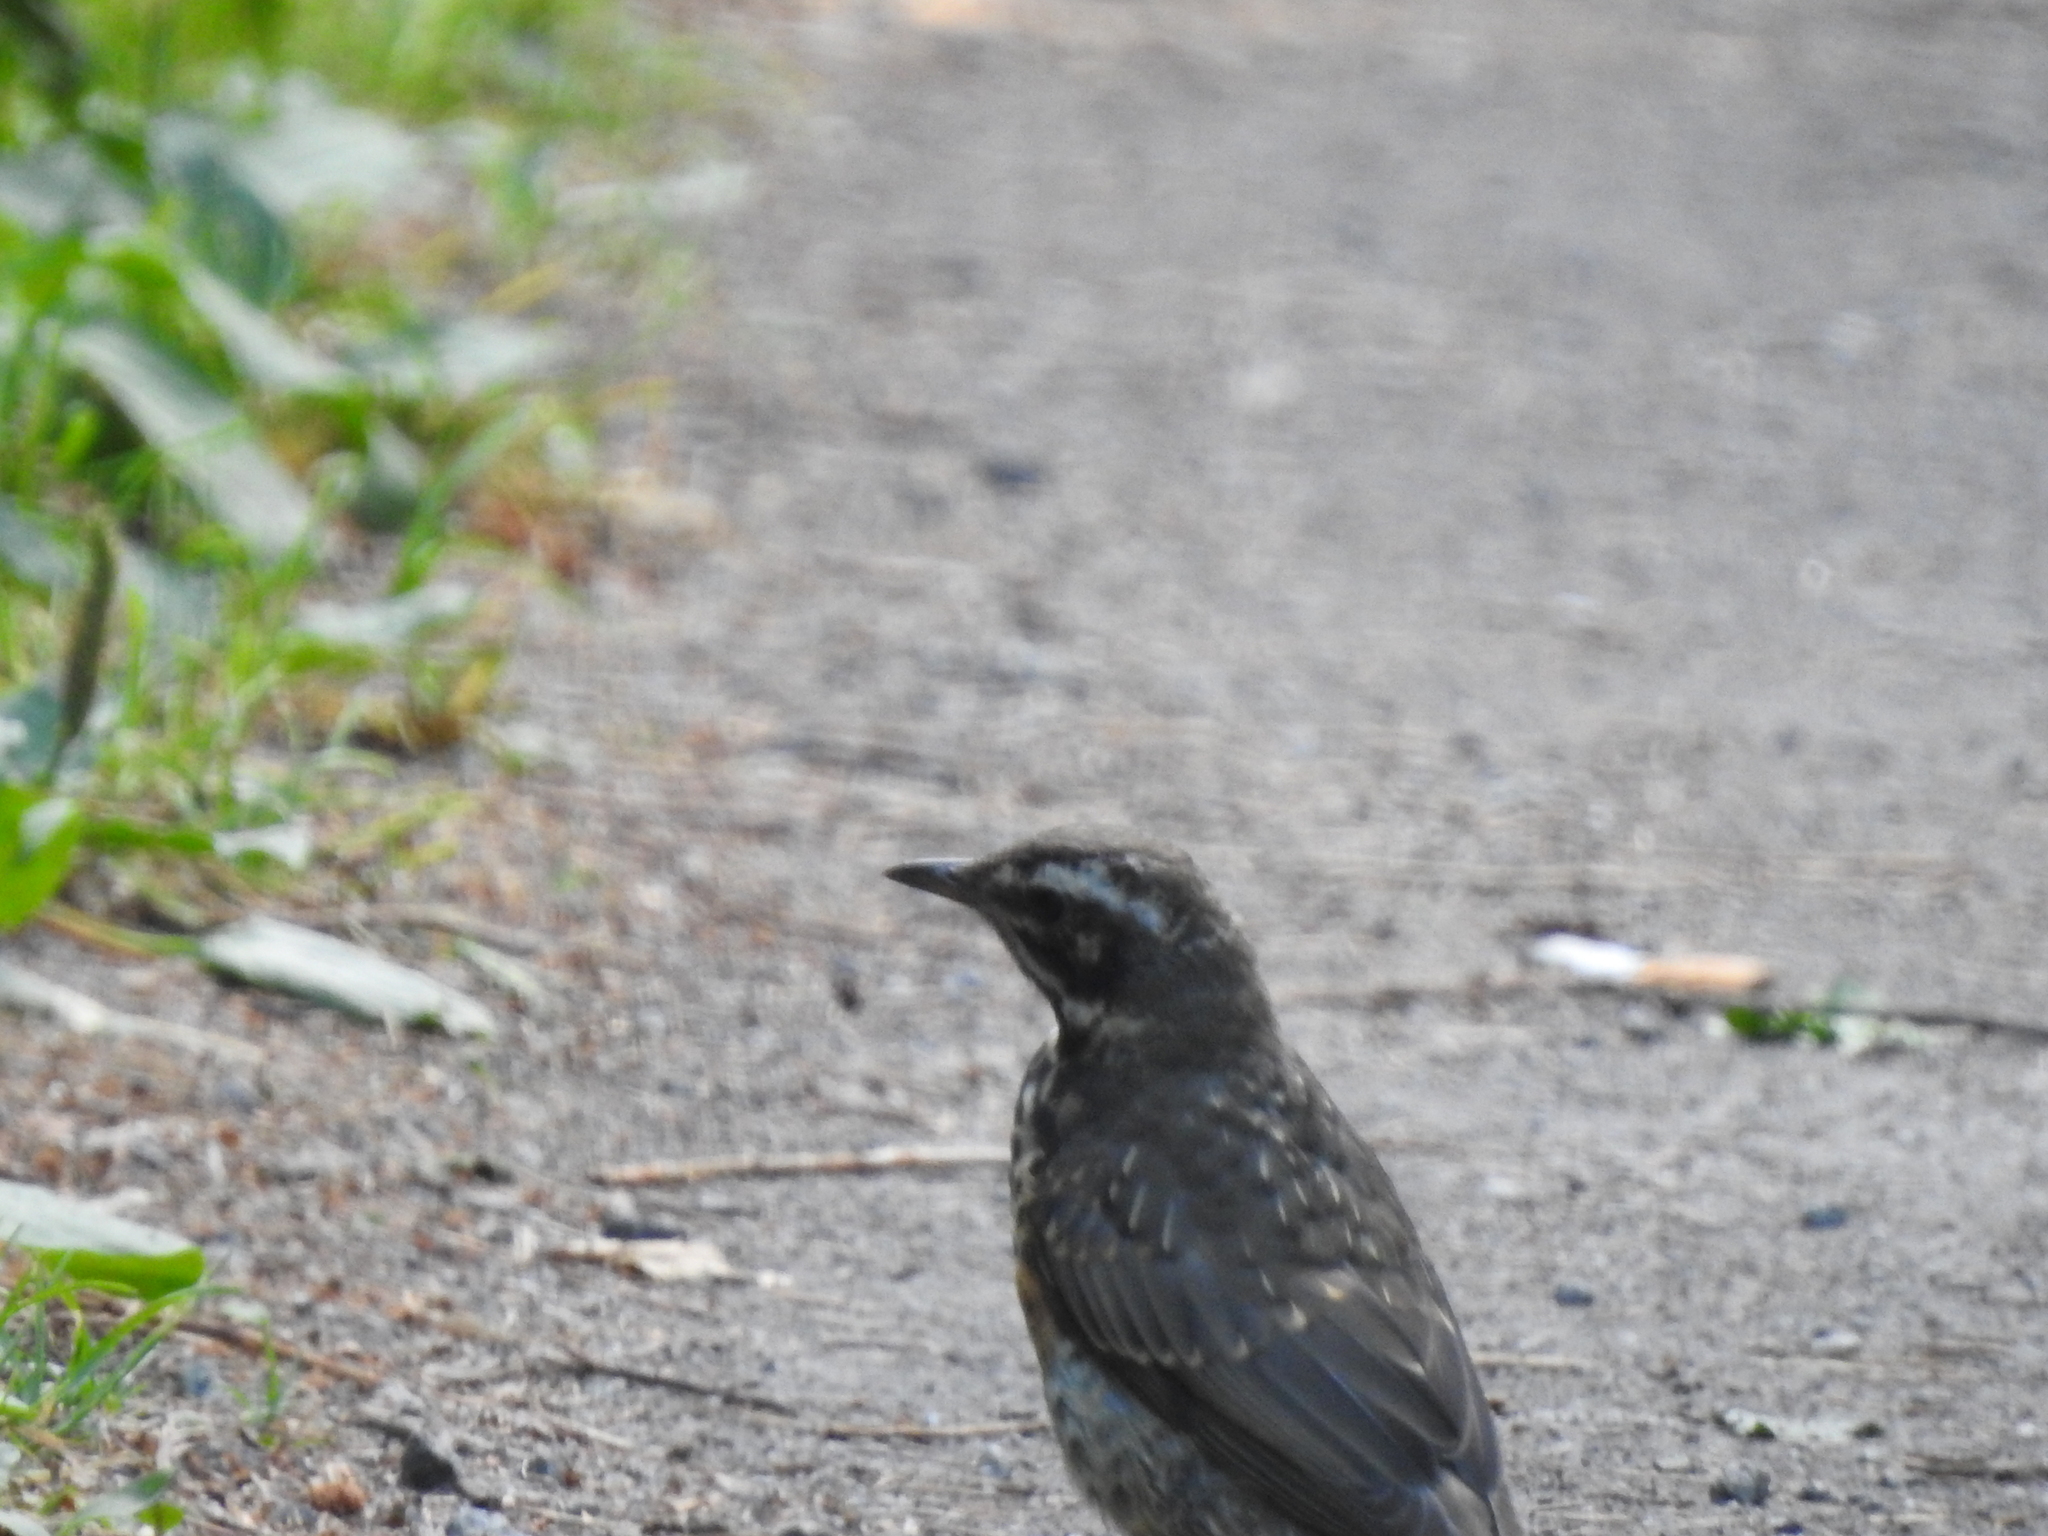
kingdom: Animalia
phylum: Chordata
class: Aves
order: Passeriformes
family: Turdidae
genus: Turdus
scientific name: Turdus iliacus
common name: Redwing
